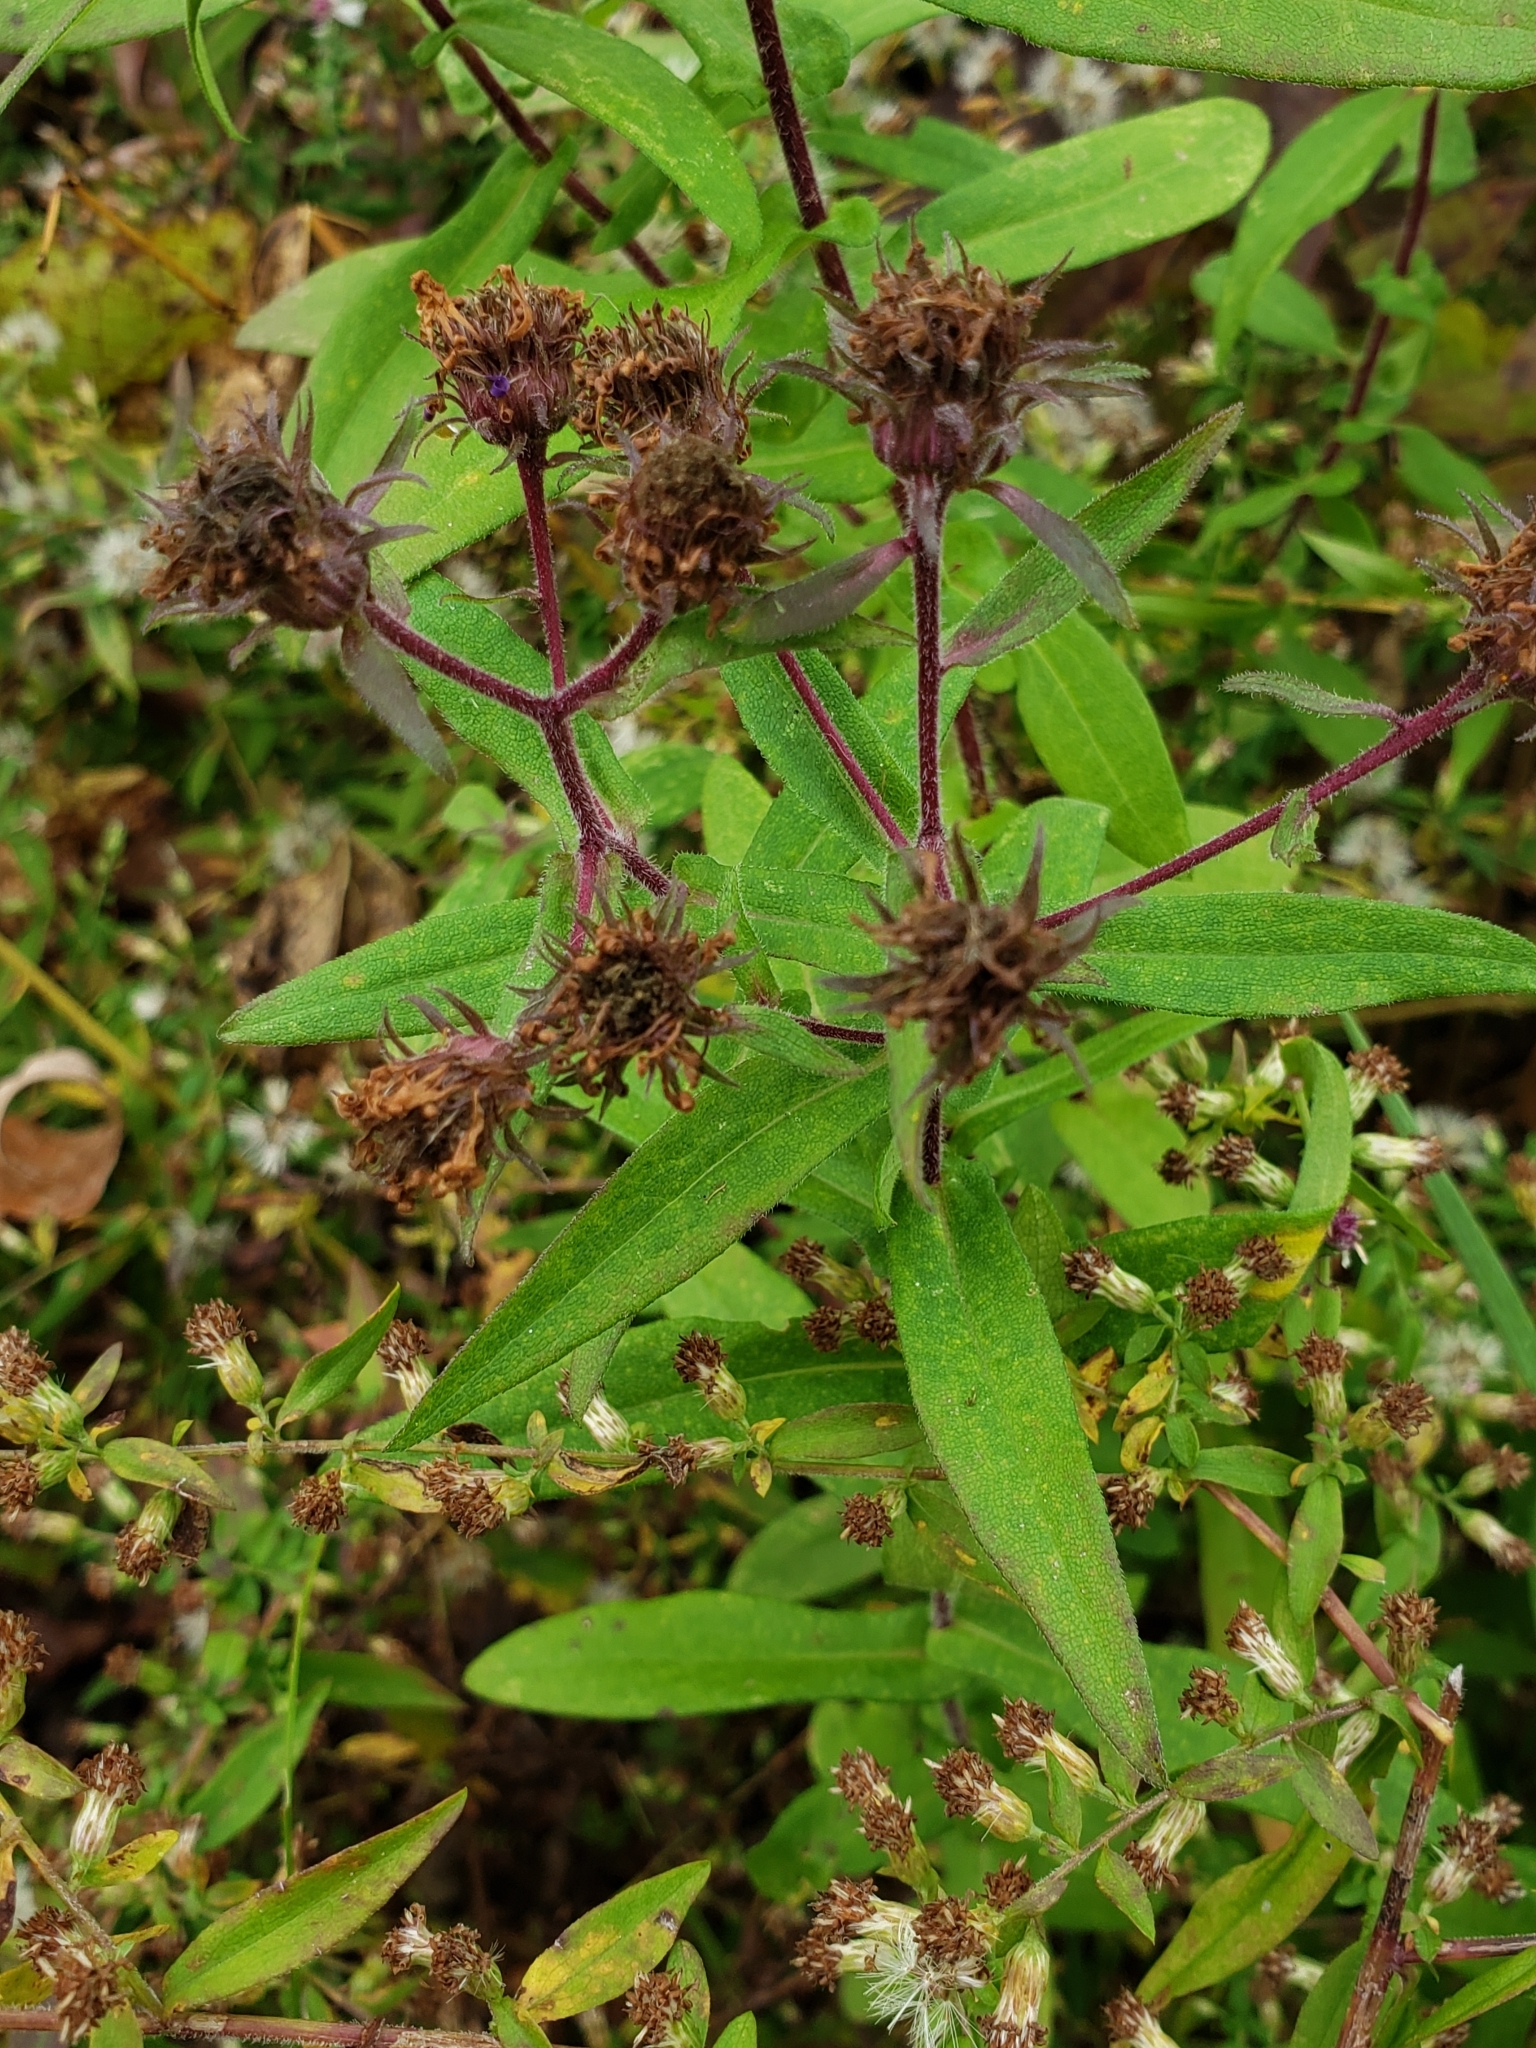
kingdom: Plantae
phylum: Tracheophyta
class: Magnoliopsida
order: Asterales
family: Asteraceae
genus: Symphyotrichum
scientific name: Symphyotrichum novae-angliae
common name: Michaelmas daisy
